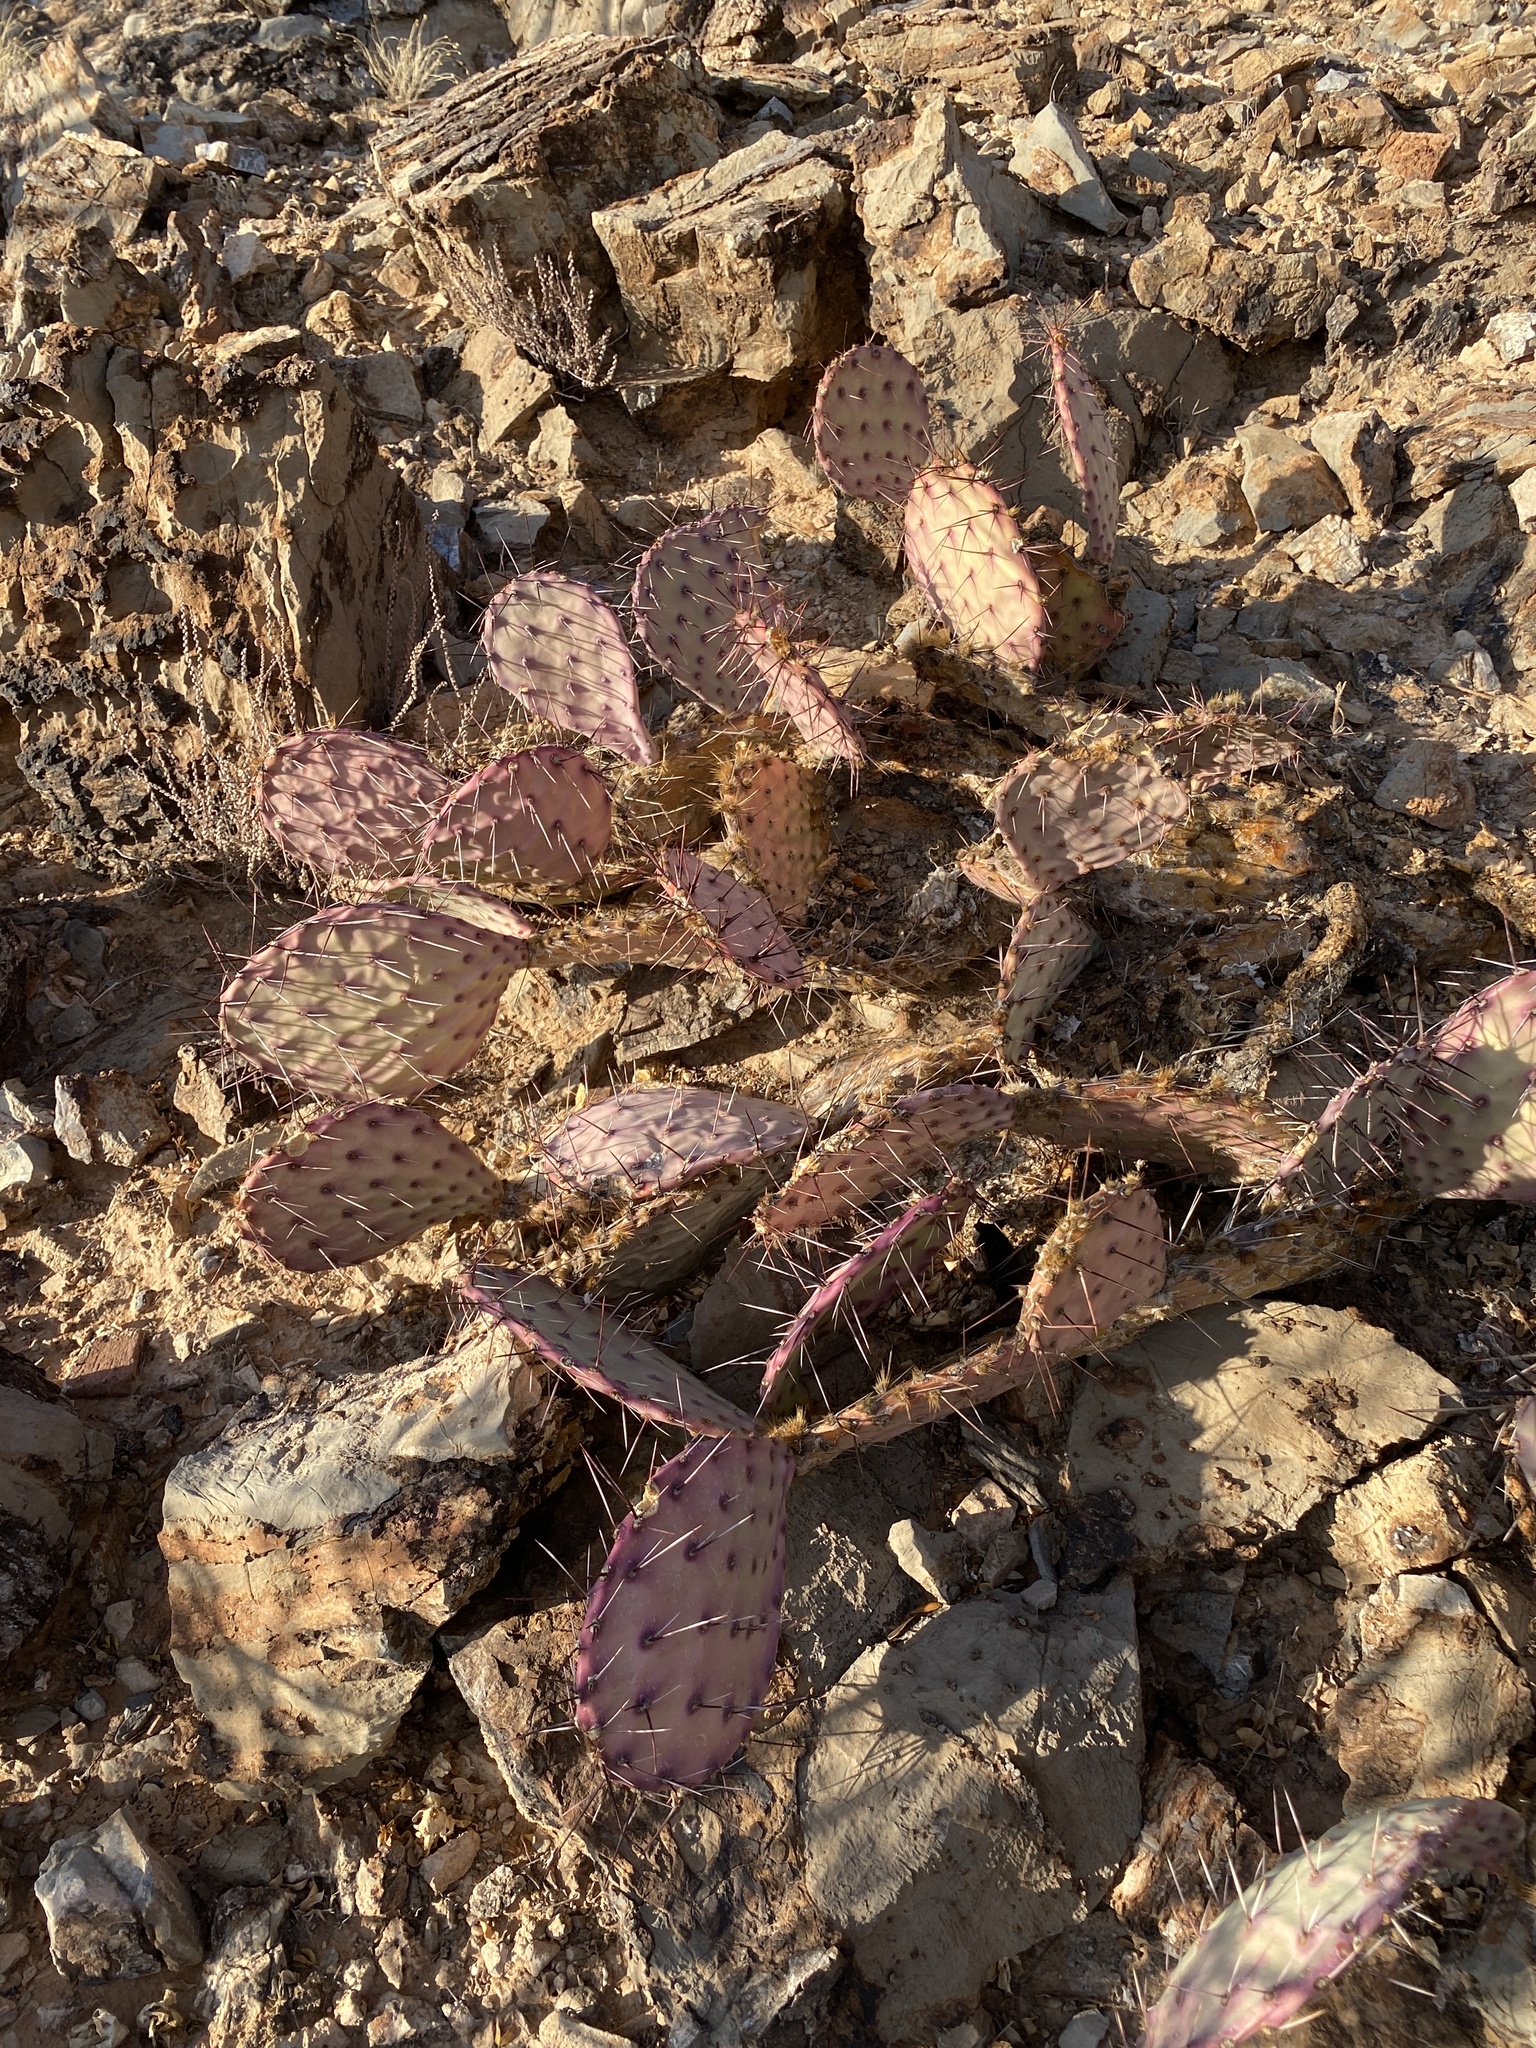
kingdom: Plantae
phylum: Tracheophyta
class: Magnoliopsida
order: Caryophyllales
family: Cactaceae
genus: Opuntia
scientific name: Opuntia macrocentra
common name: Purple prickly-pear
